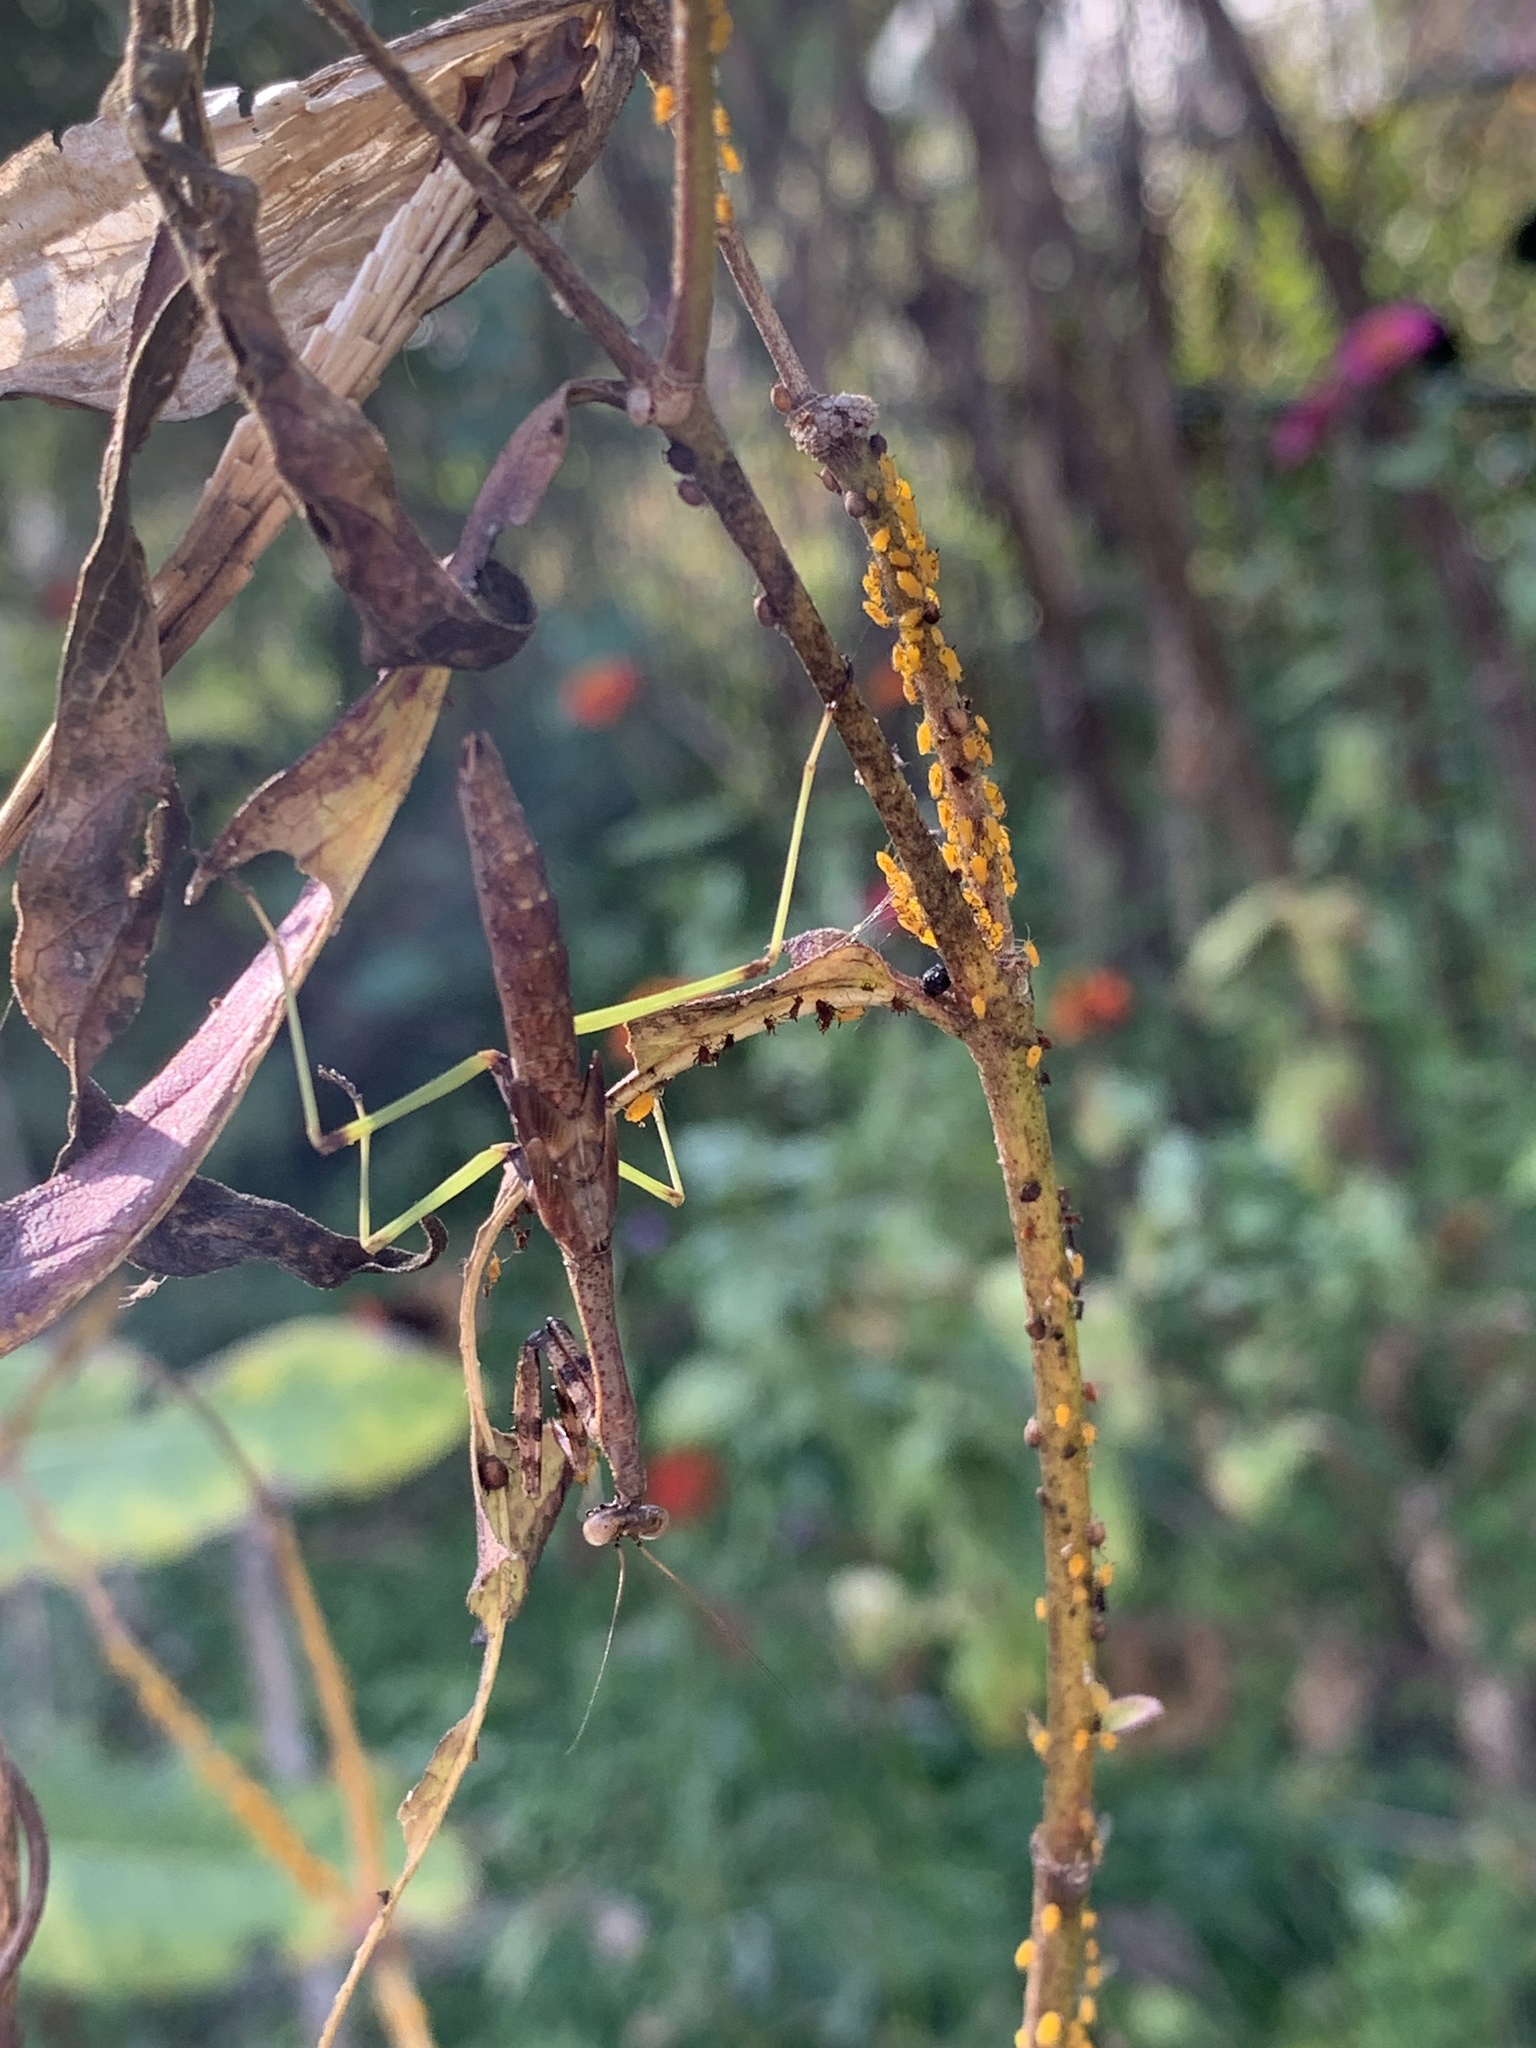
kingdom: Animalia
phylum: Arthropoda
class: Insecta
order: Mantodea
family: Mantidae
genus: Stagmomantis
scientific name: Stagmomantis carolina
